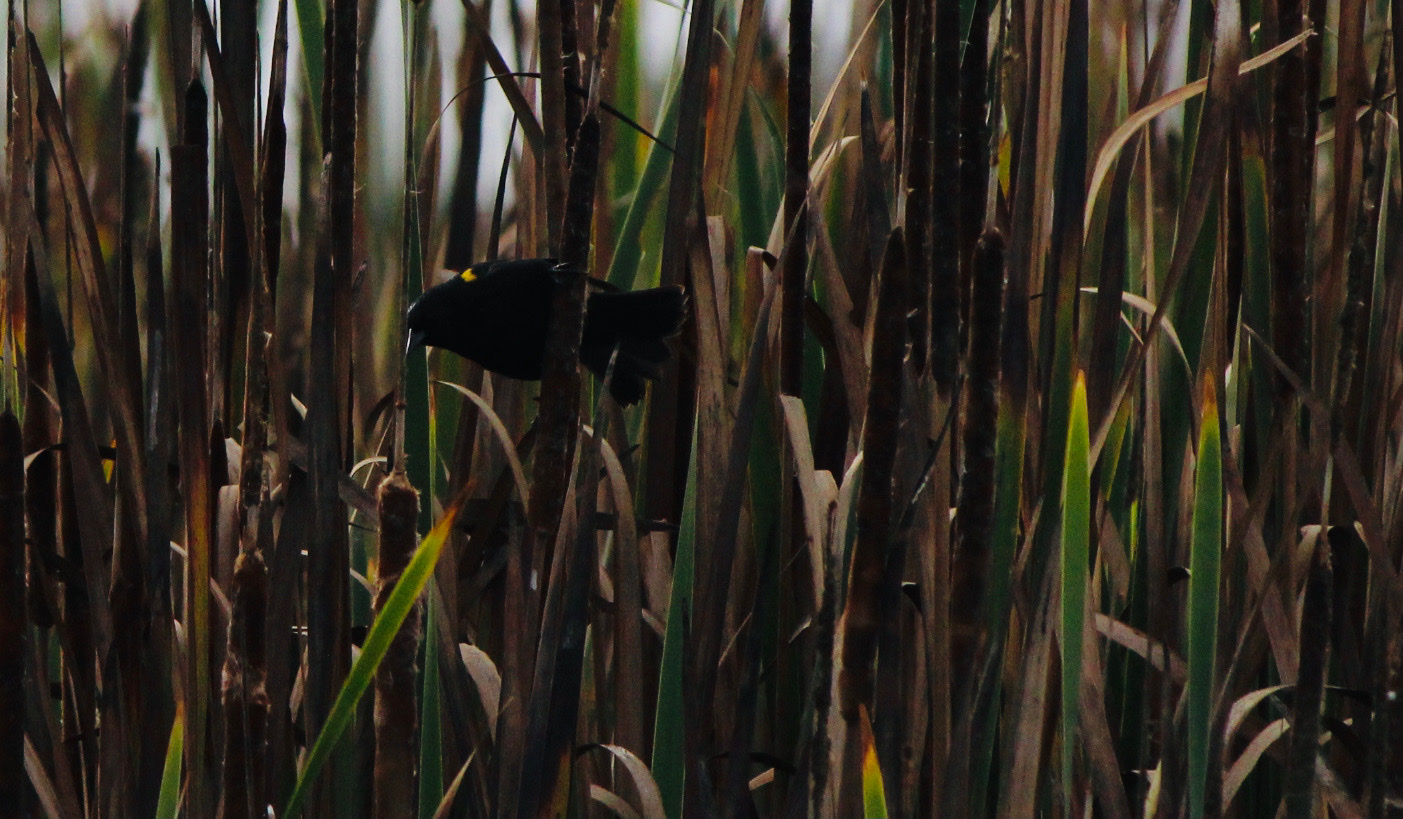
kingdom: Animalia
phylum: Chordata
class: Aves
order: Passeriformes
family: Icteridae
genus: Agelasticus
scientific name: Agelasticus thilius
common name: Yellow-winged blackbird
